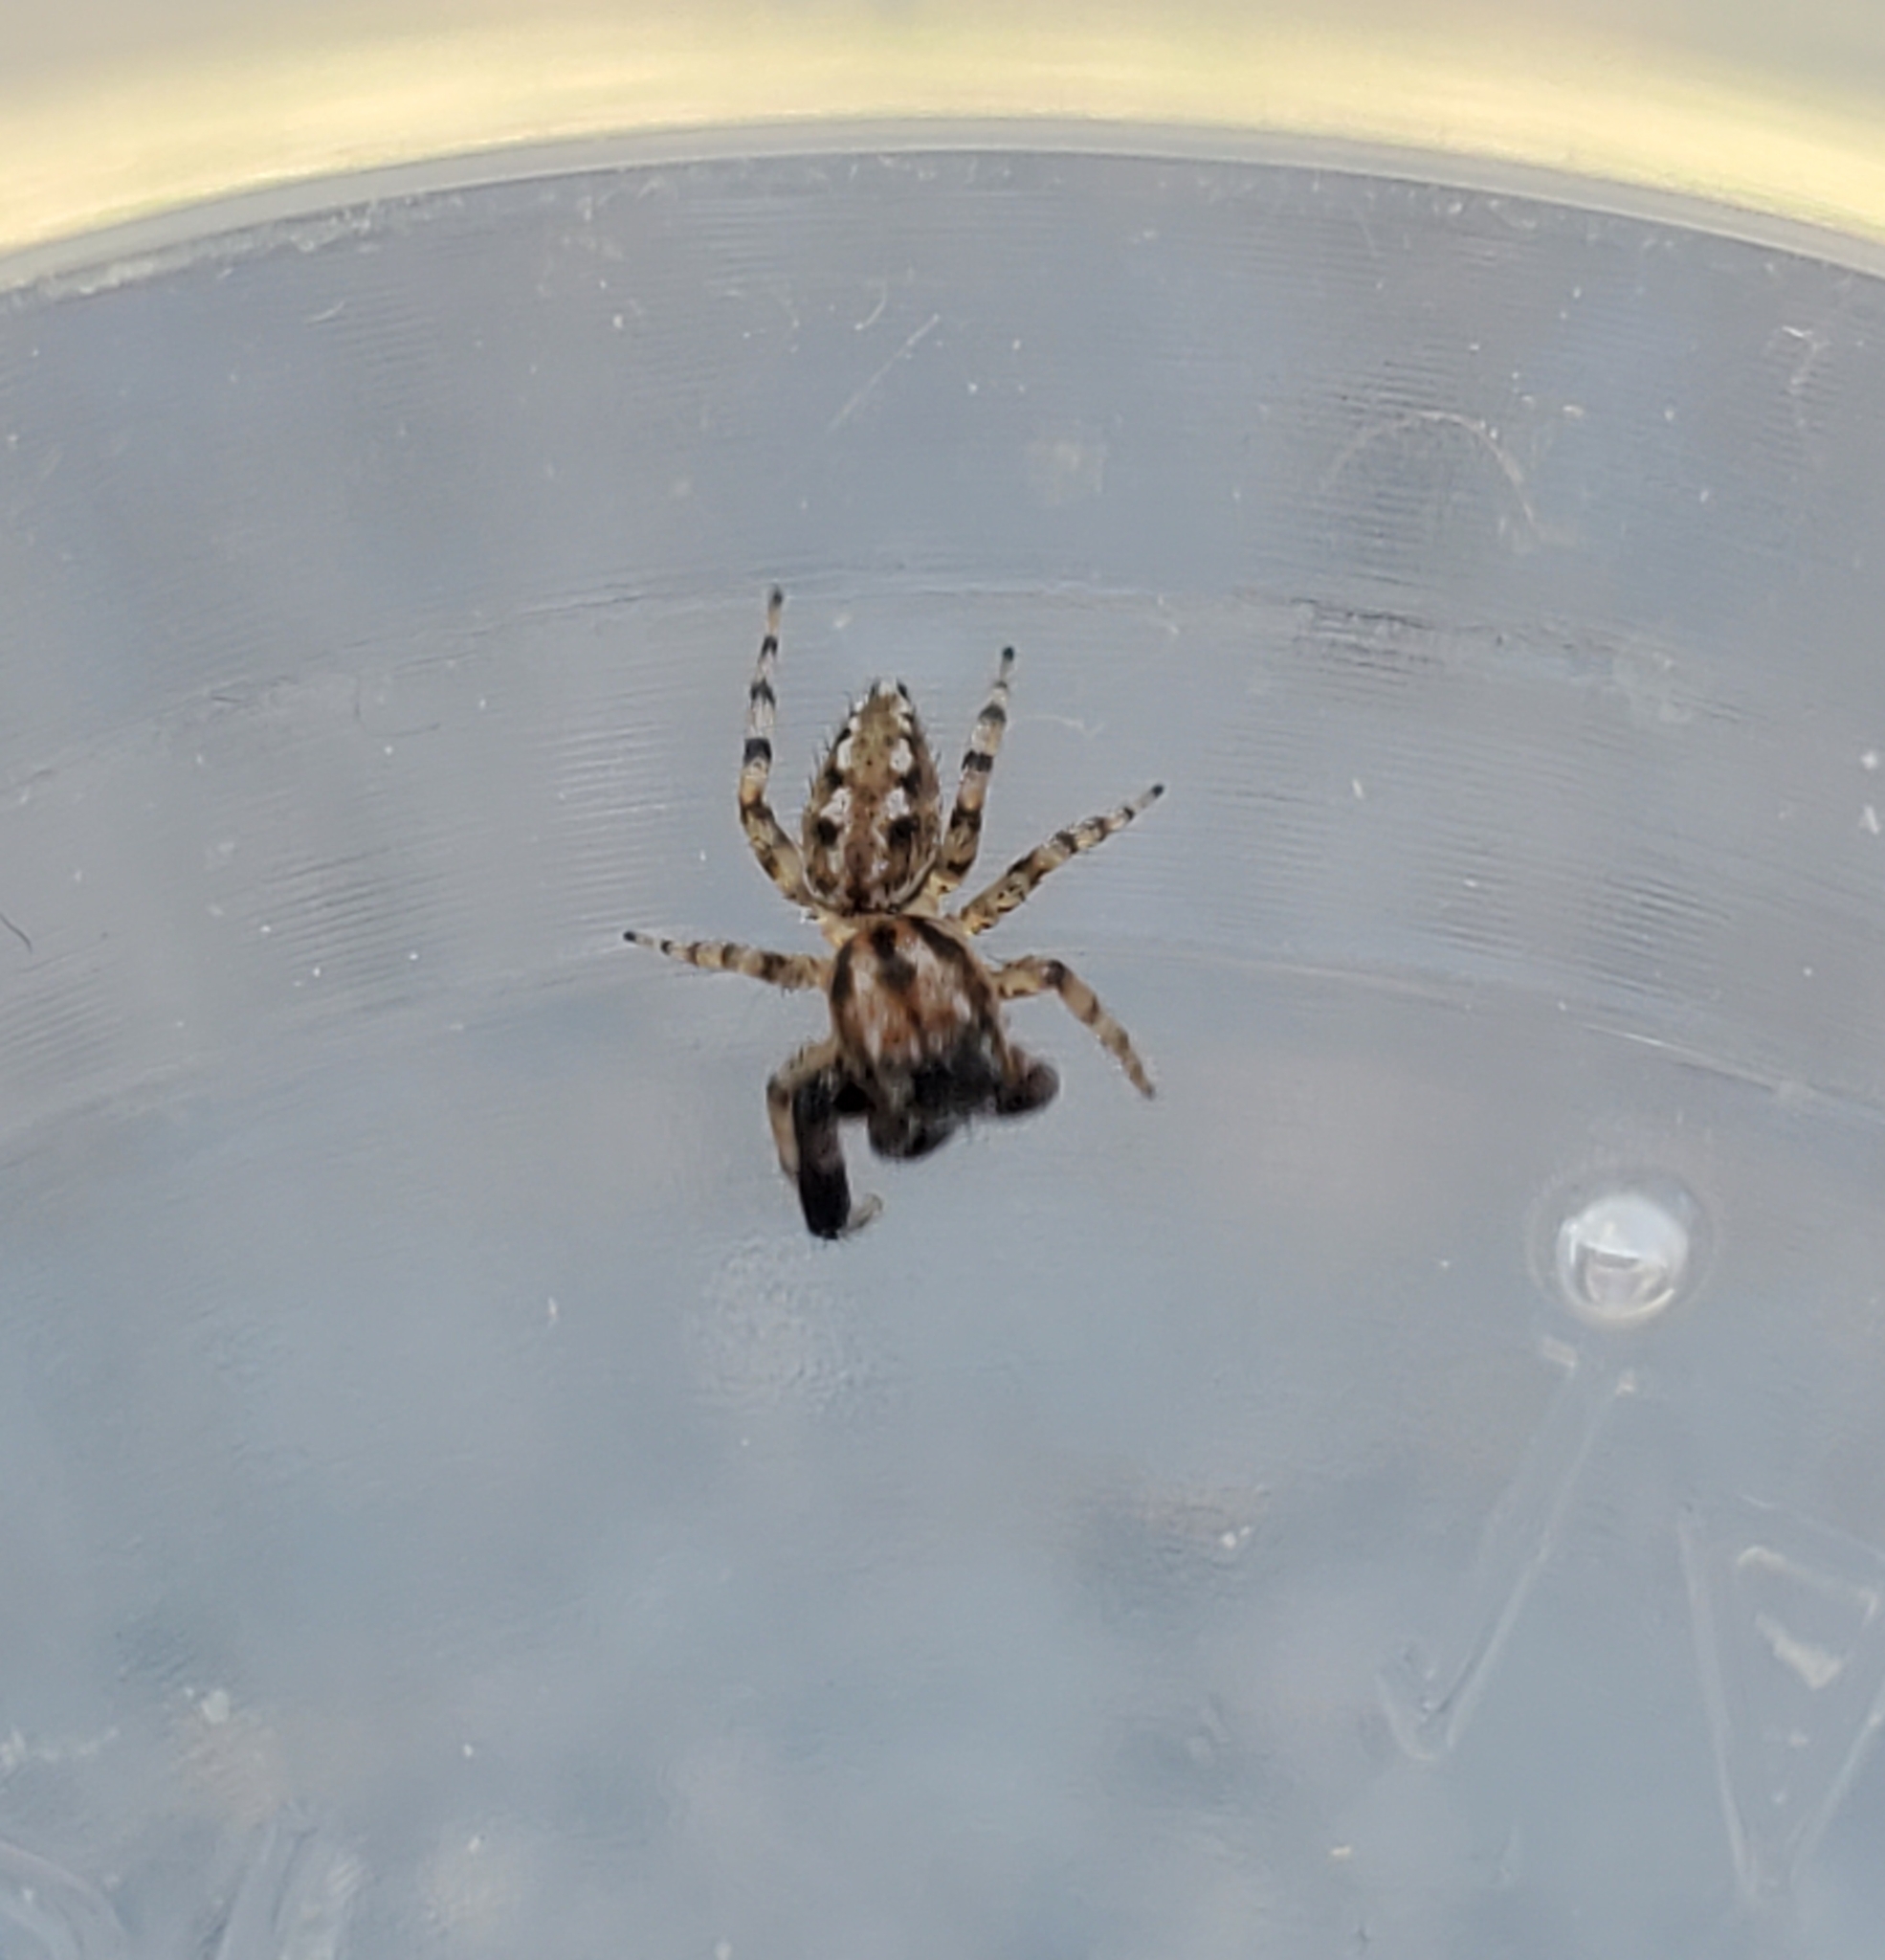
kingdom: Animalia
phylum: Arthropoda
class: Arachnida
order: Araneae
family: Salticidae
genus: Marpissa
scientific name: Marpissa obtusa
